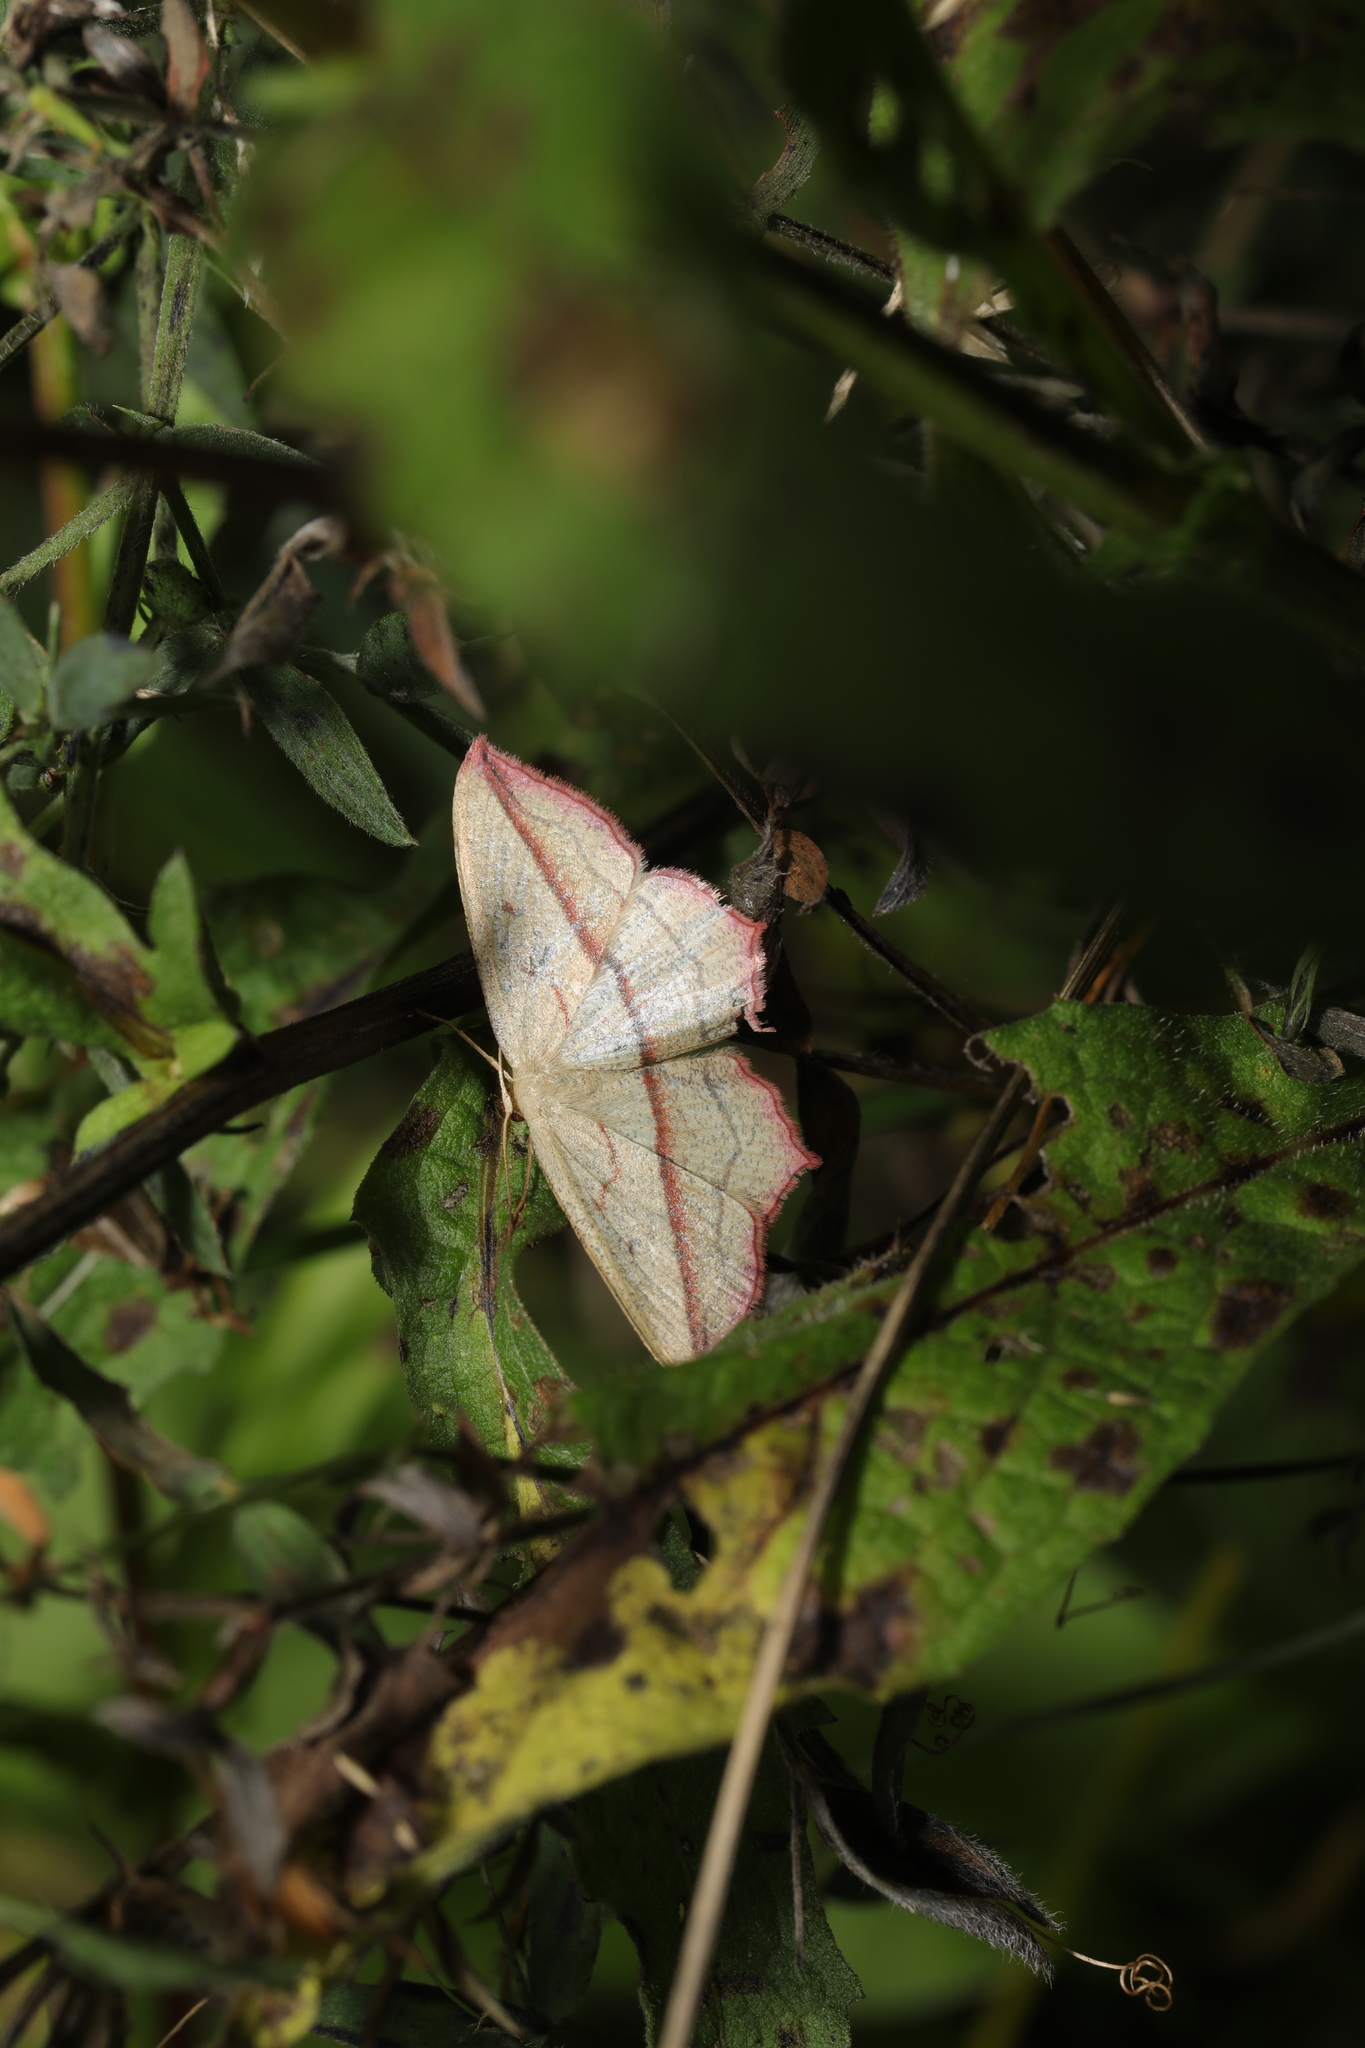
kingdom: Animalia
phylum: Arthropoda
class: Insecta
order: Lepidoptera
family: Geometridae
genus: Timandra
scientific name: Timandra comae
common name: Blood-vein
